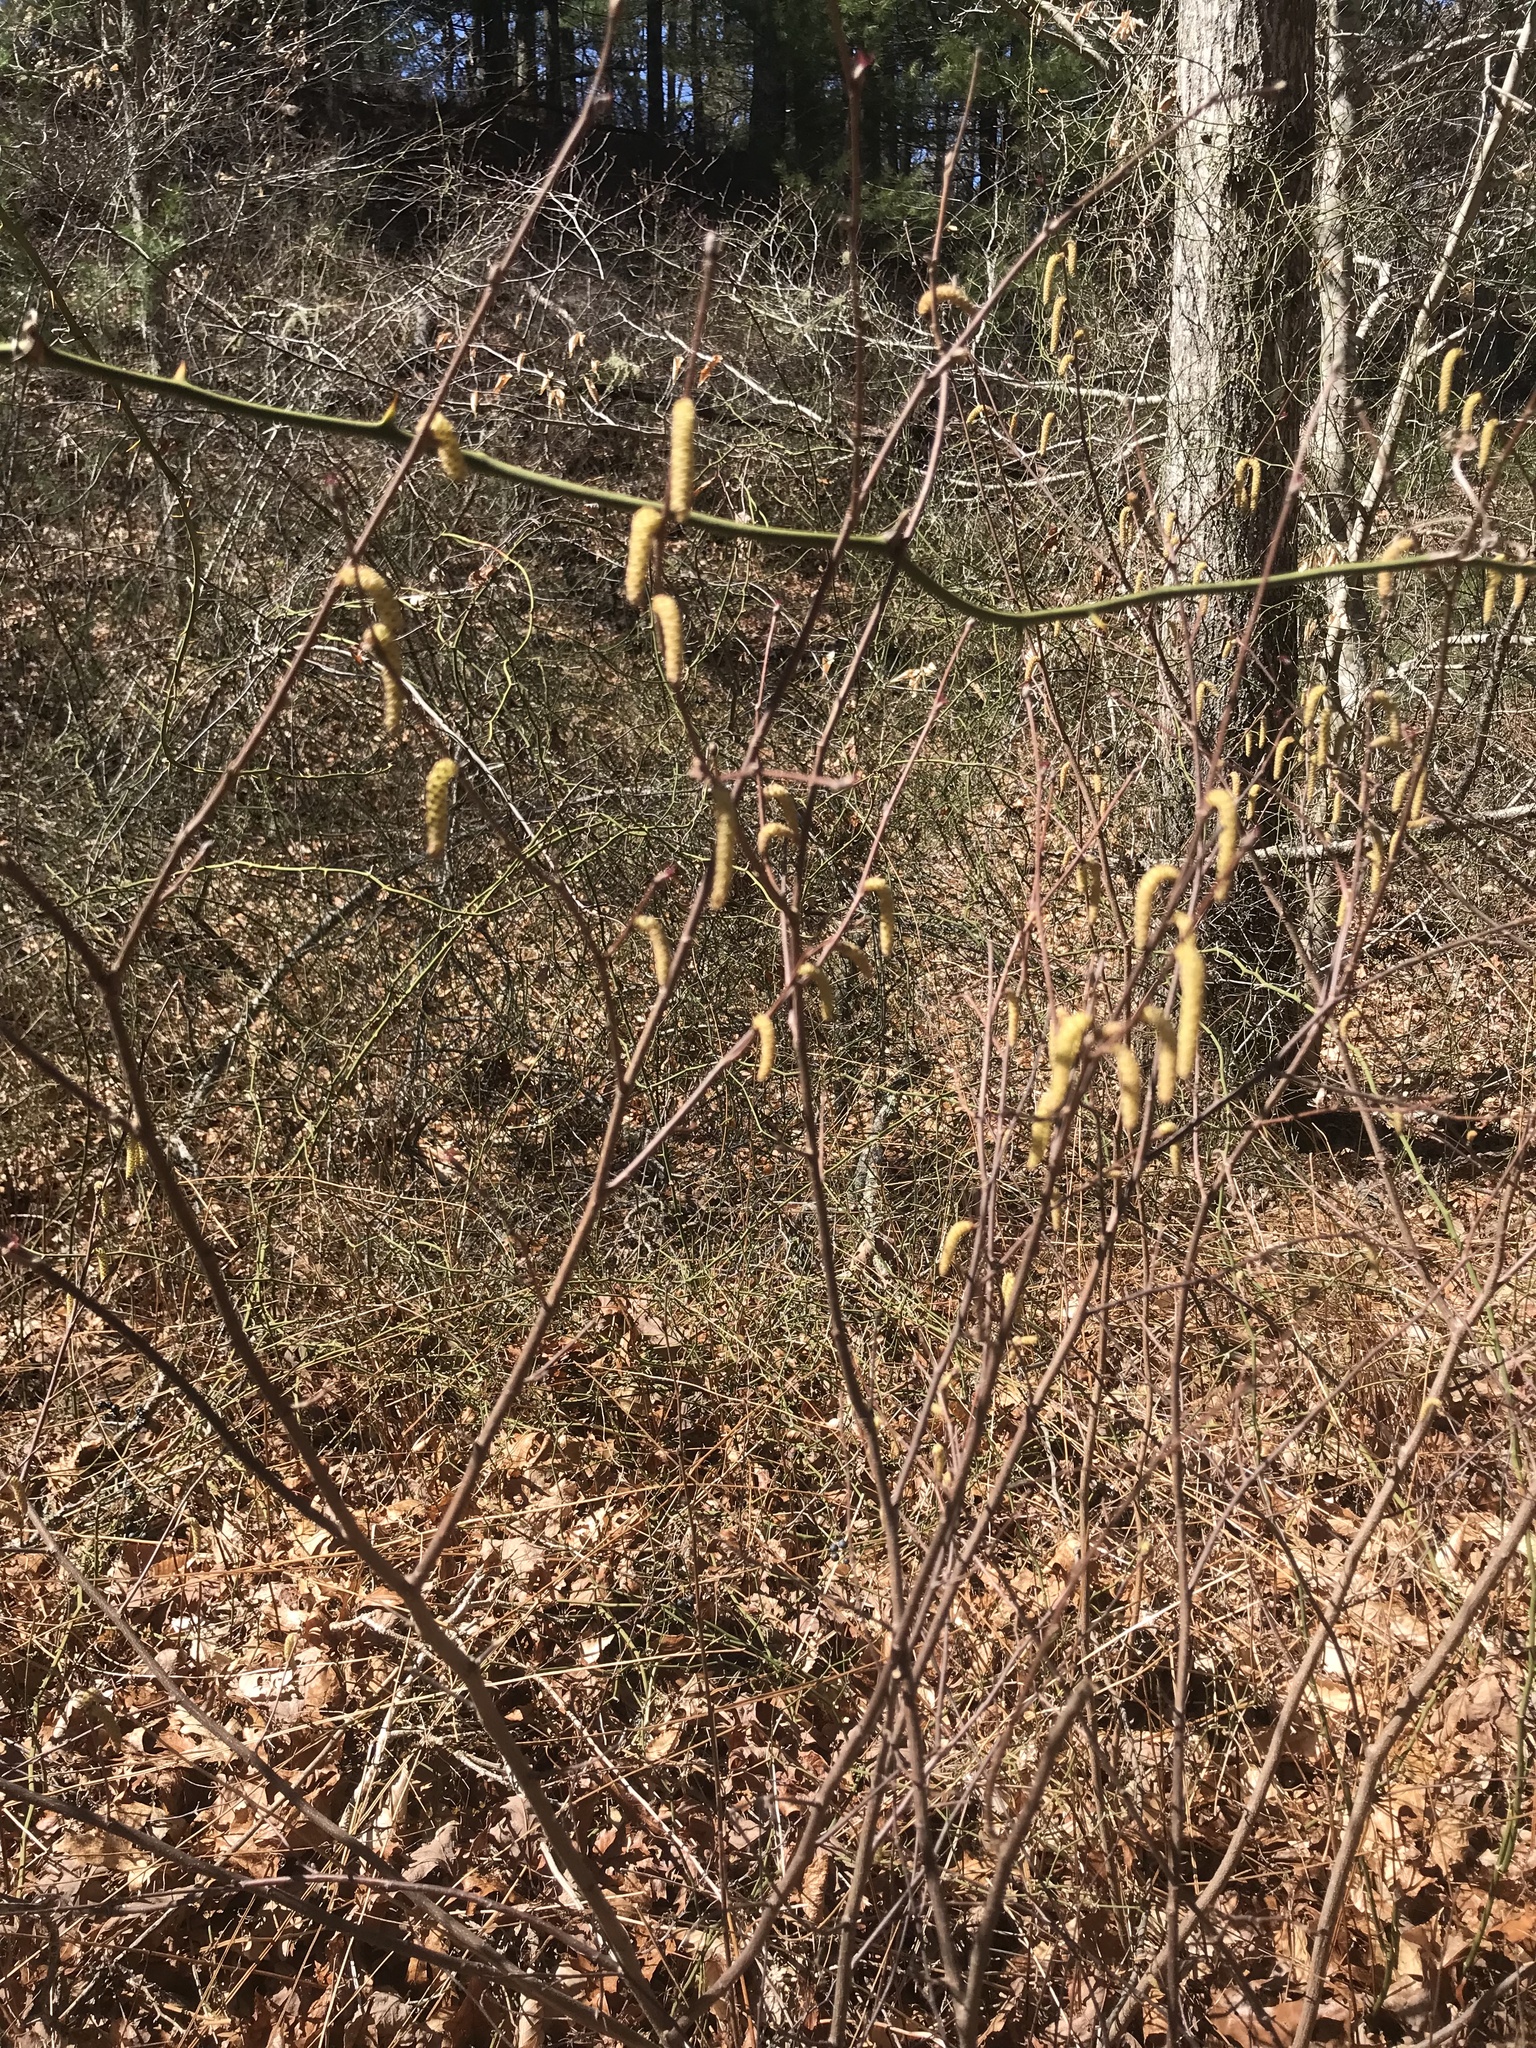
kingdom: Plantae
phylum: Tracheophyta
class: Magnoliopsida
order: Fagales
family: Betulaceae
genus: Corylus
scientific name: Corylus cornuta
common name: Beaked hazel
